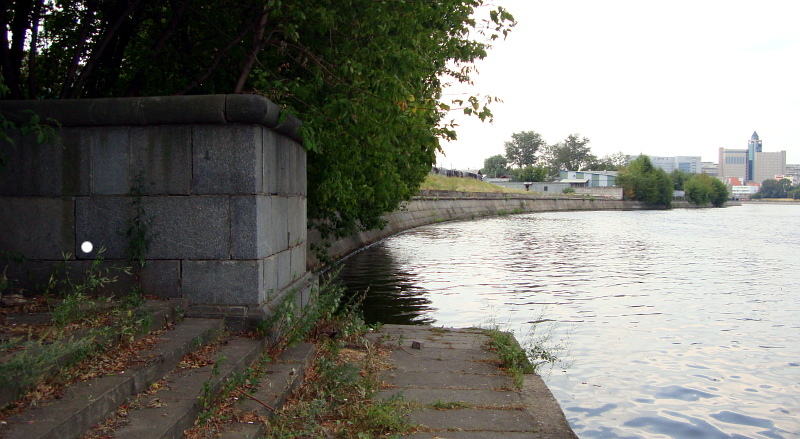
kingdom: Plantae
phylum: Tracheophyta
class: Magnoliopsida
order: Fabales
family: Fabaceae
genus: Melilotus
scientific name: Melilotus albus
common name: White melilot
